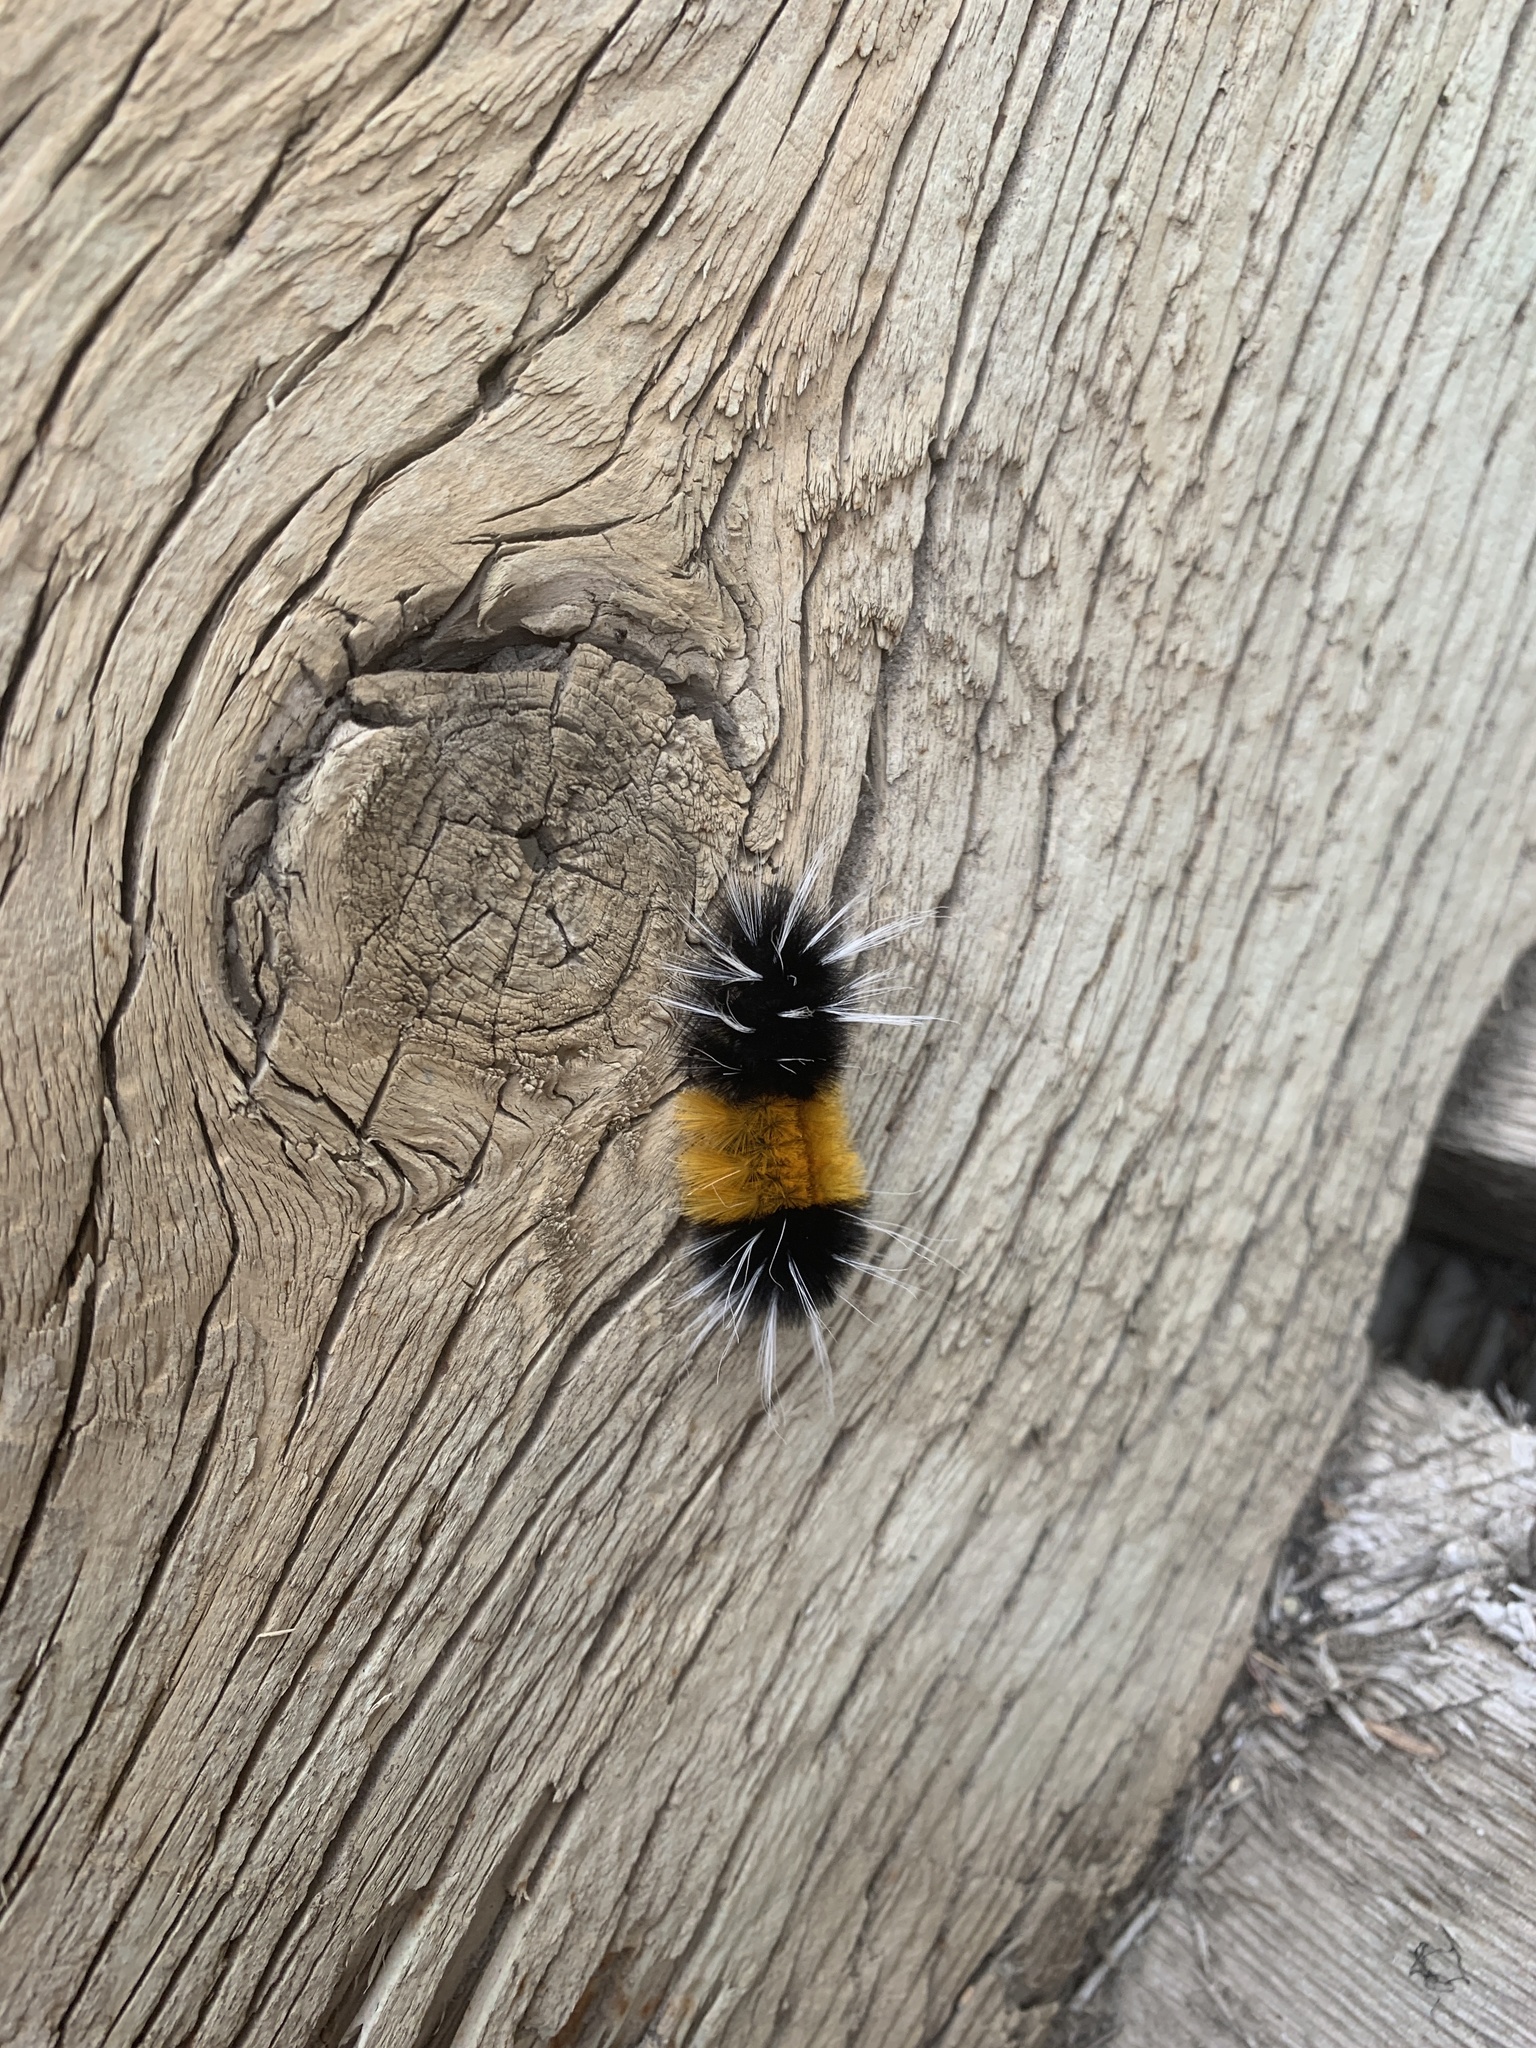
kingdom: Animalia
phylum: Arthropoda
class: Insecta
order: Lepidoptera
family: Erebidae
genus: Lophocampa
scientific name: Lophocampa maculata
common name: Spotted tussock moth
